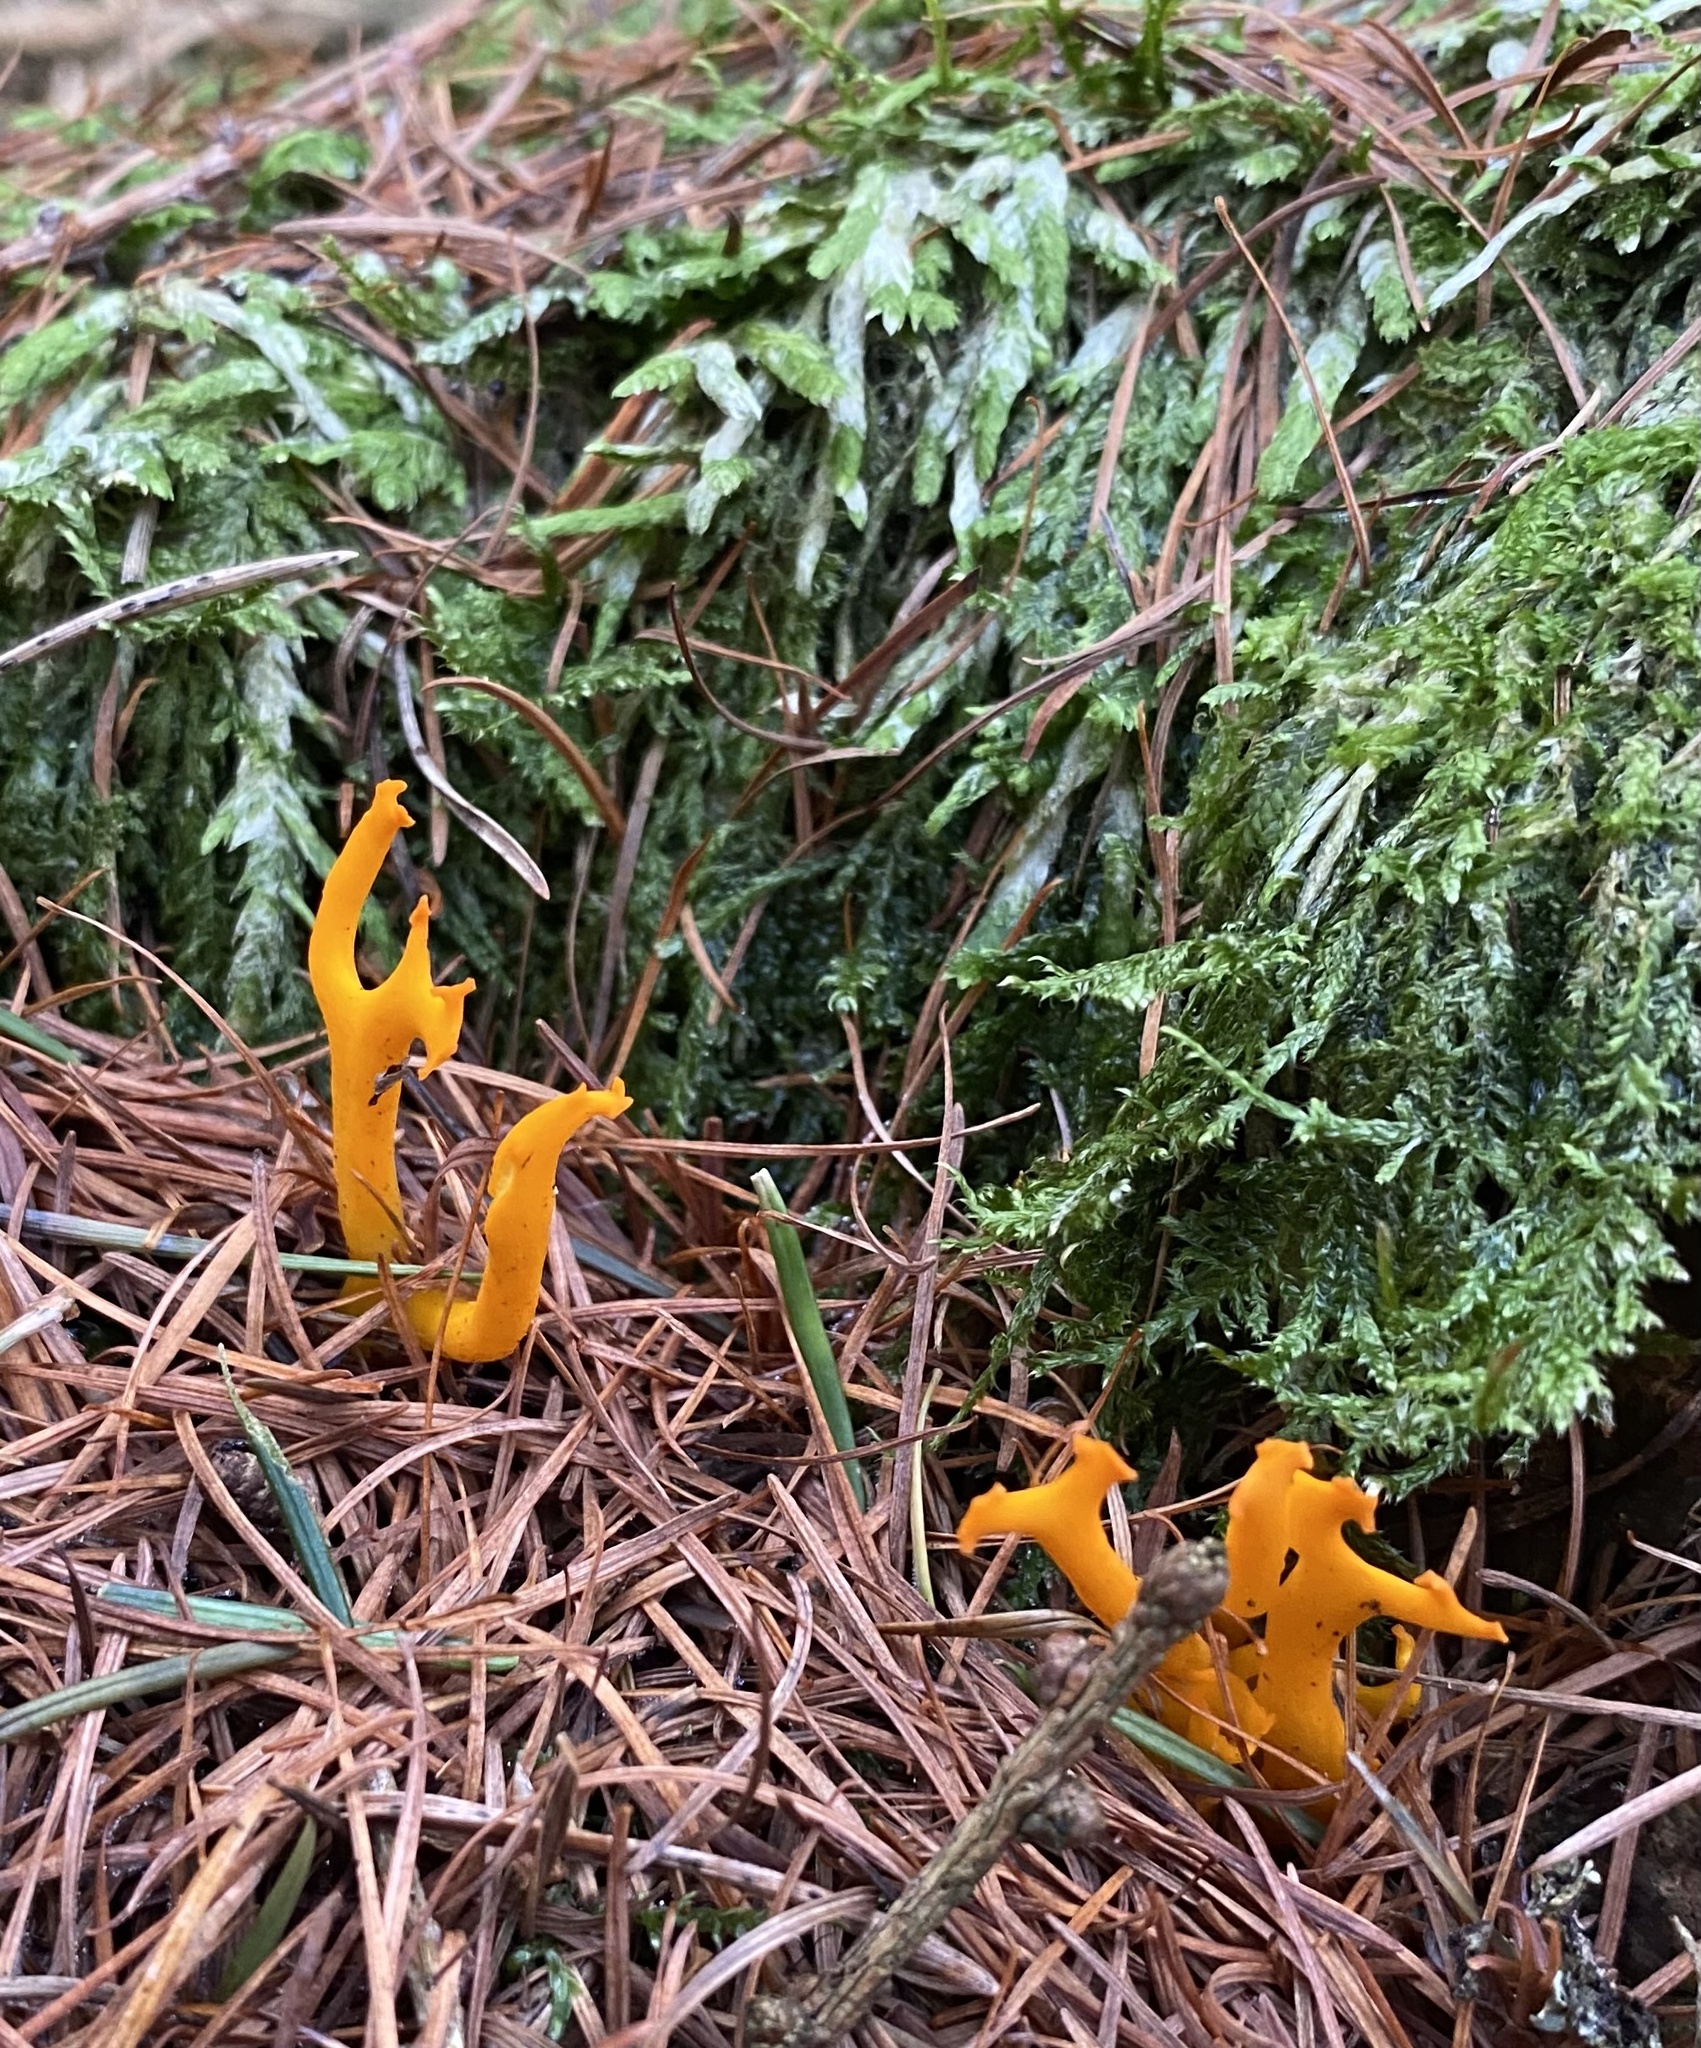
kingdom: Fungi
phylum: Basidiomycota
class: Dacrymycetes
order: Dacrymycetales
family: Dacrymycetaceae
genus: Calocera
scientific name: Calocera viscosa
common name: Yellow stagshorn
